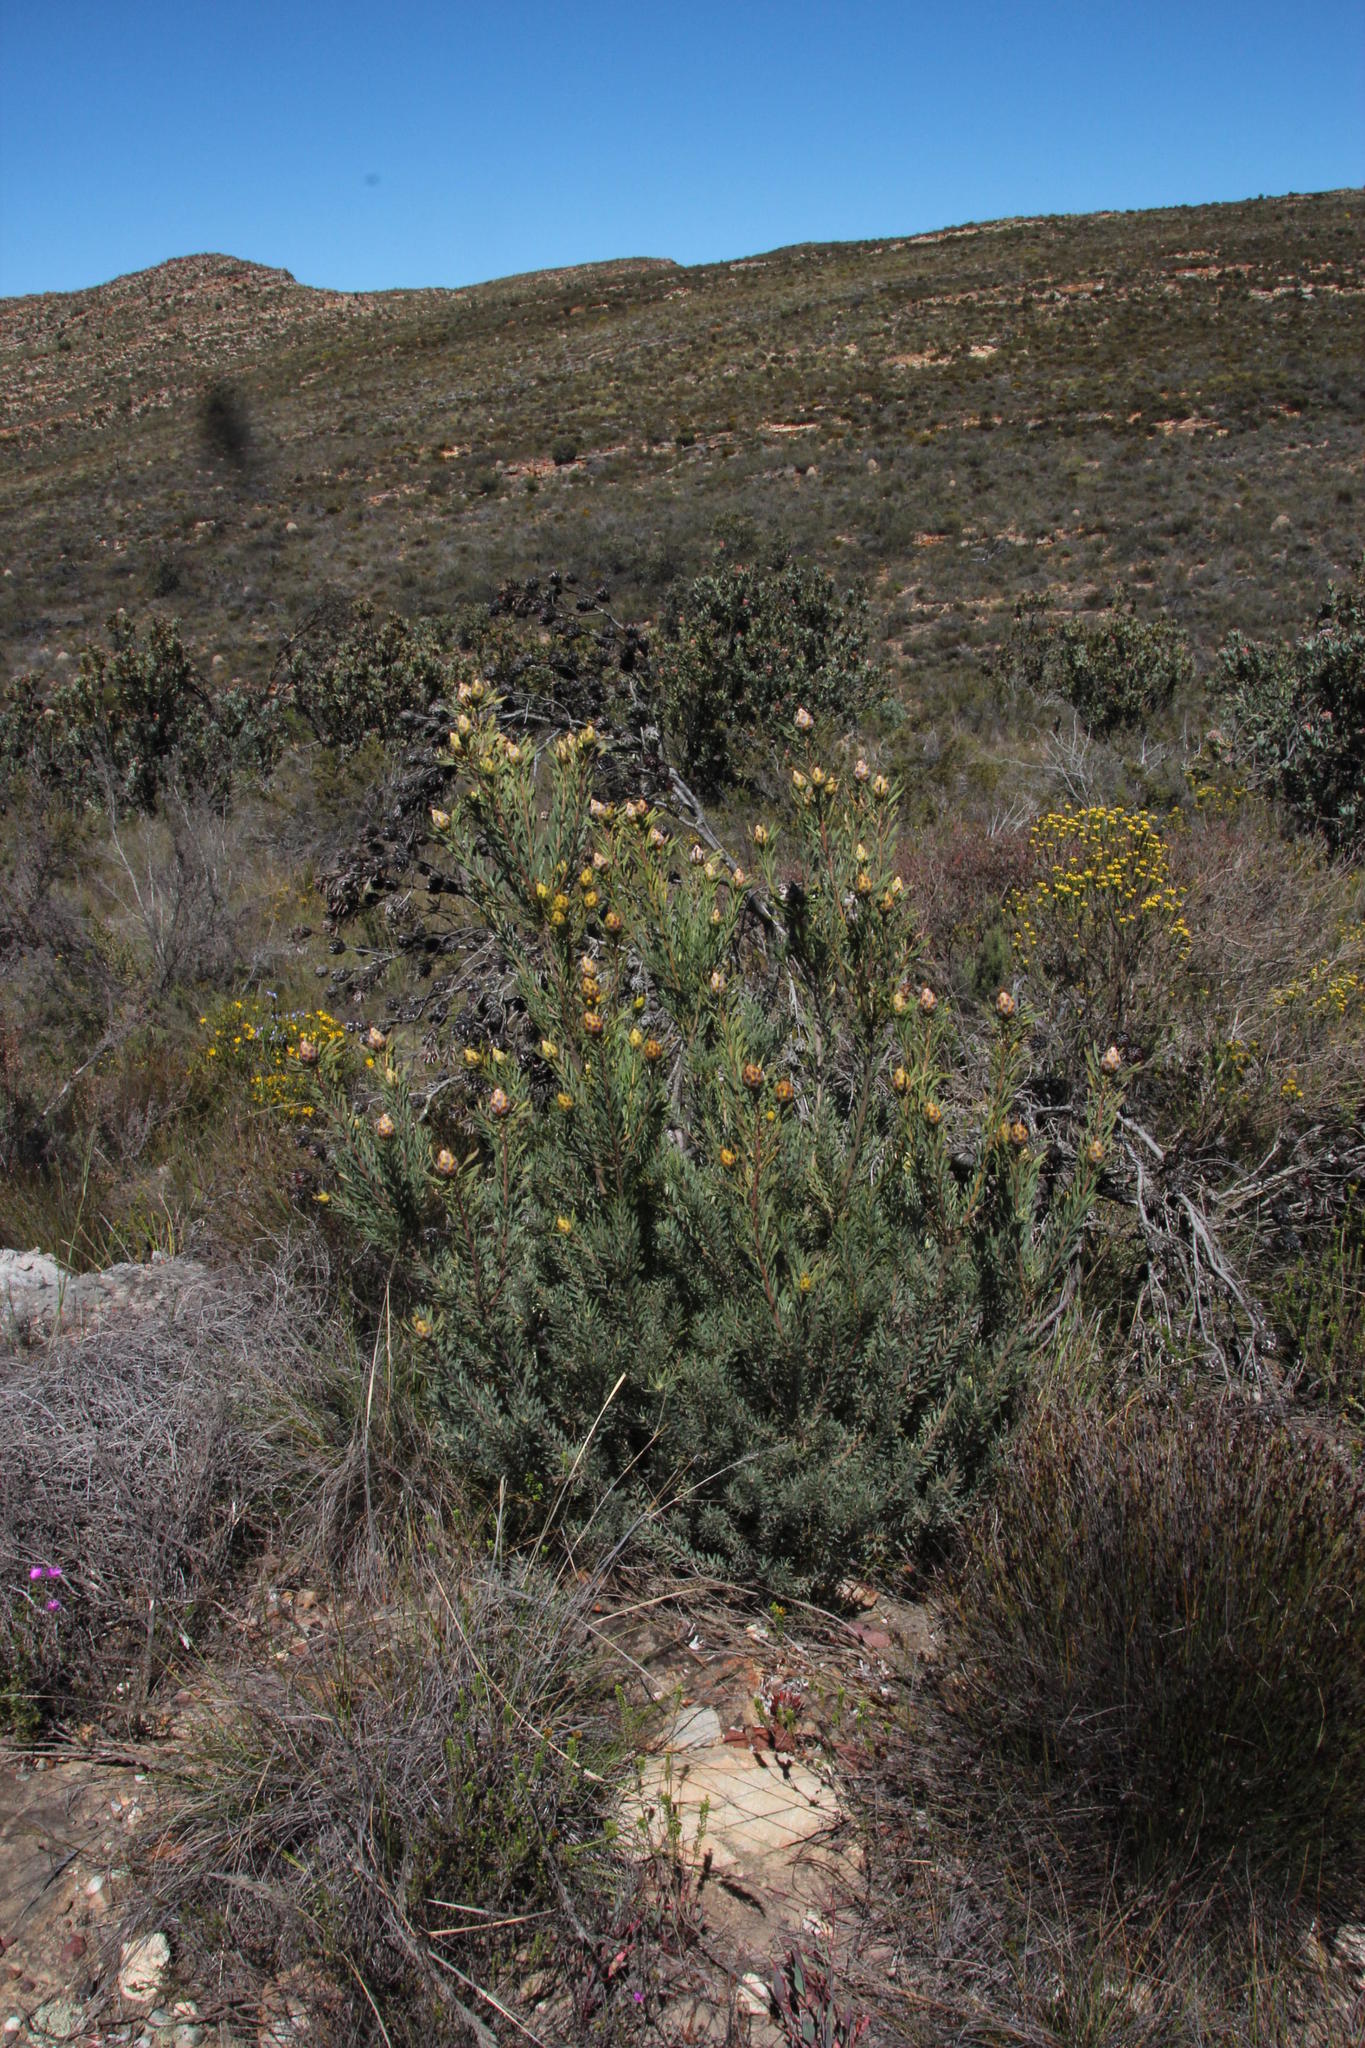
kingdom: Plantae
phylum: Tracheophyta
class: Magnoliopsida
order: Proteales
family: Proteaceae
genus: Leucadendron
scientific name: Leucadendron rubrum
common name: Spinning top
